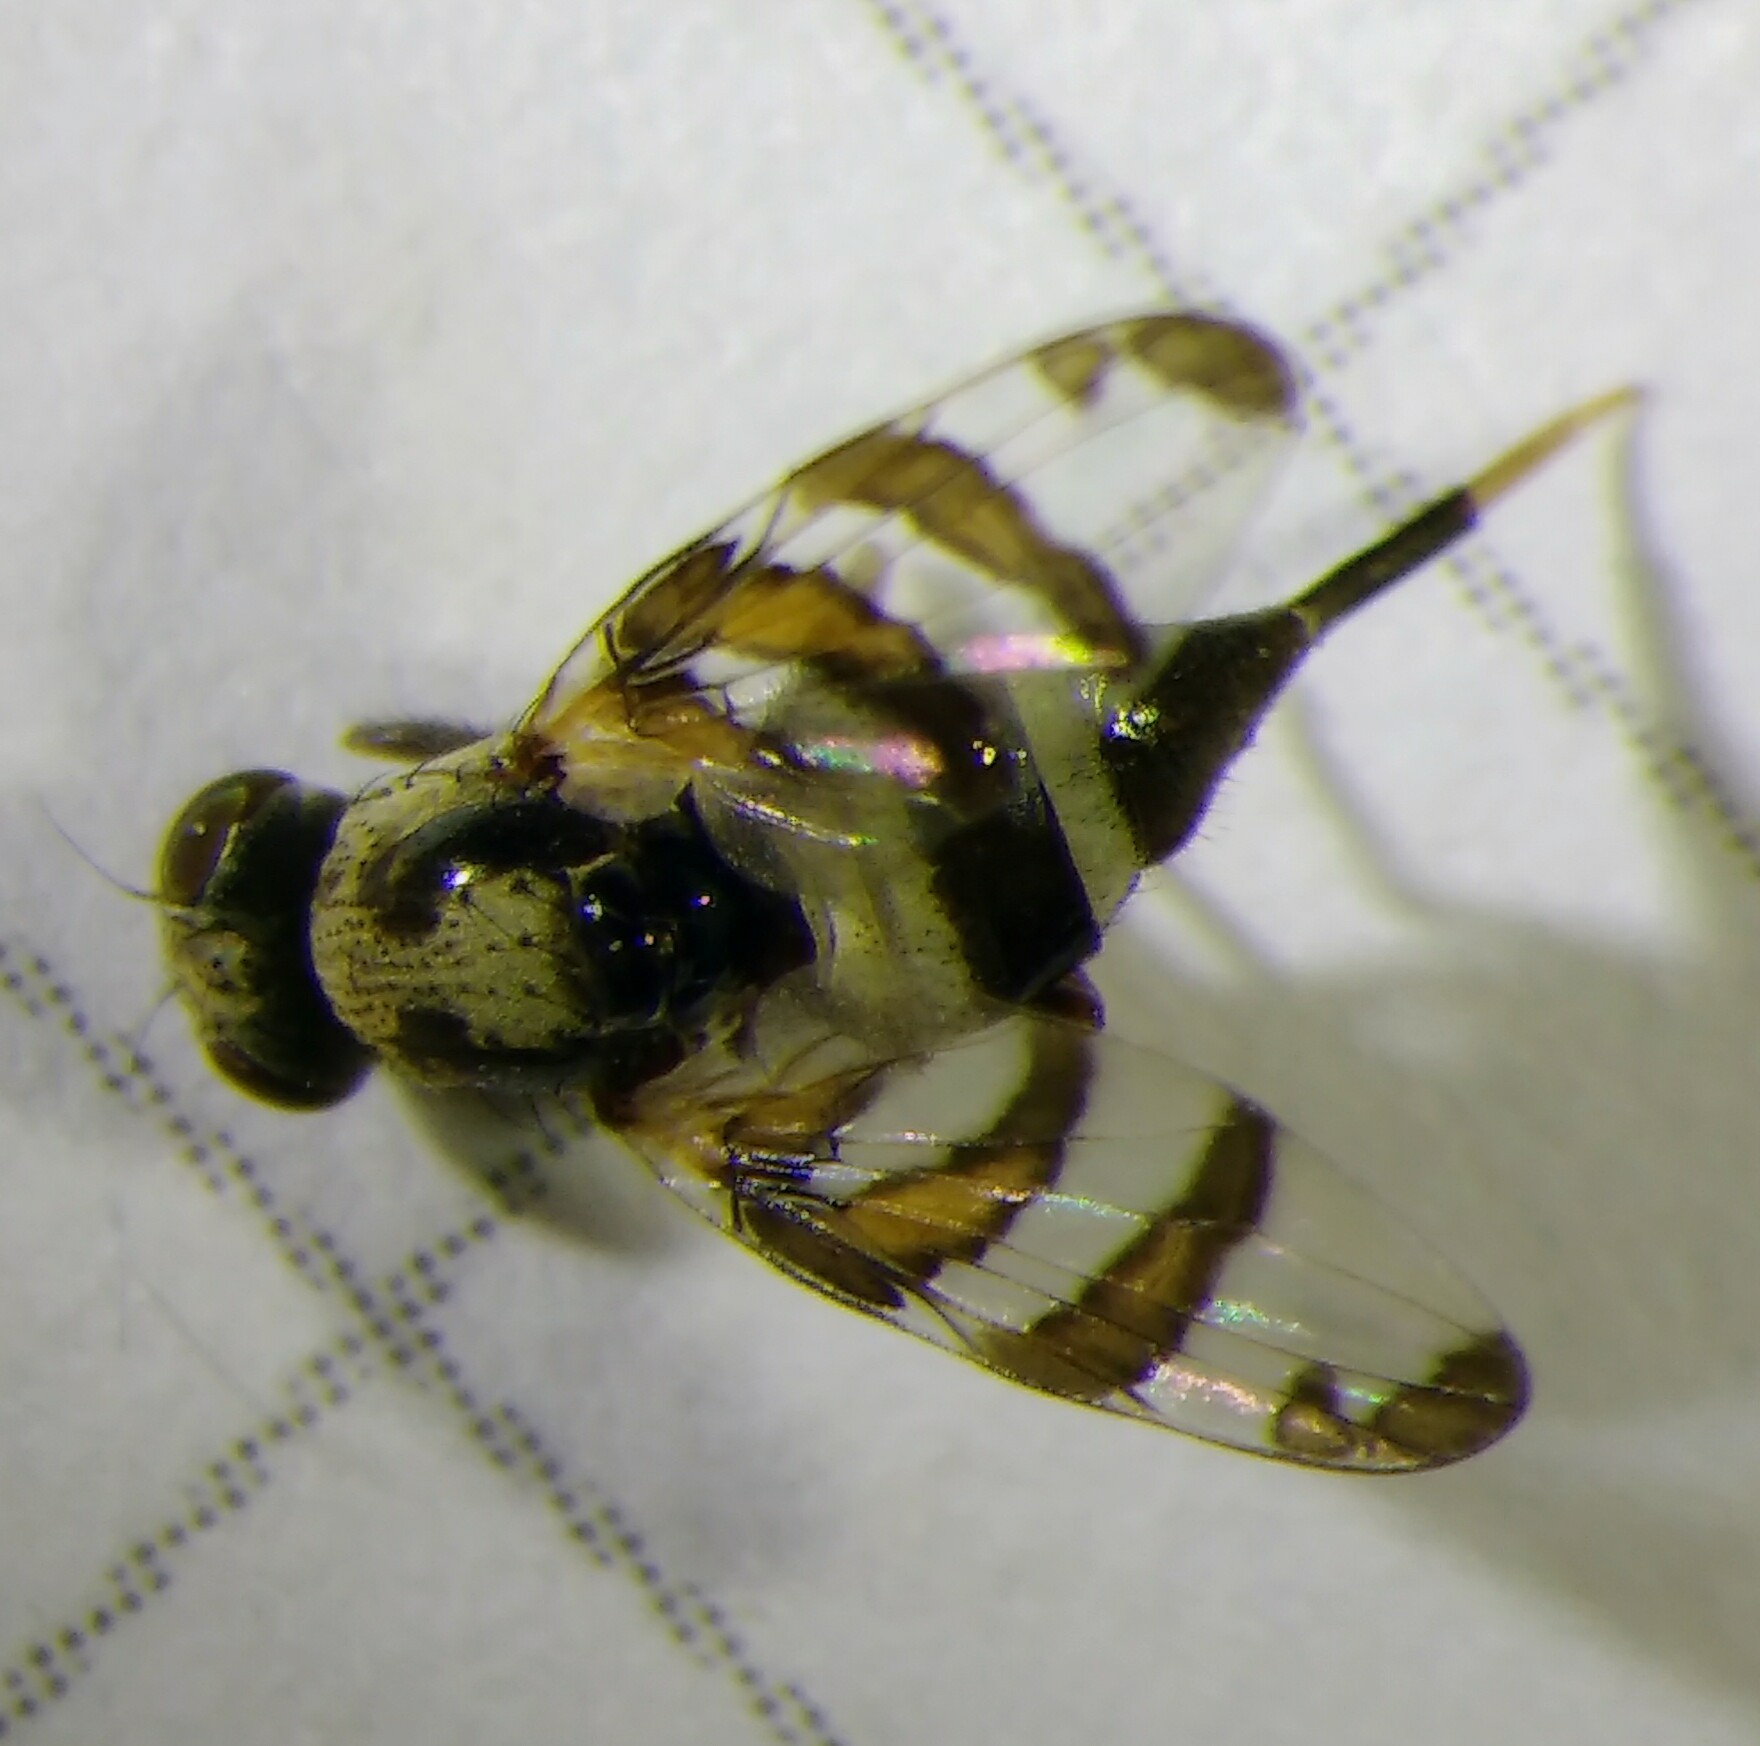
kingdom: Animalia
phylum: Arthropoda
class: Insecta
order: Diptera
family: Ulidiidae
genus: Myennis
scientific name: Myennis octopunctata
